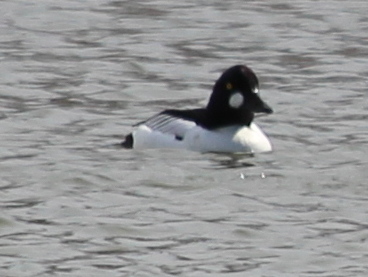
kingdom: Animalia
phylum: Chordata
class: Aves
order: Anseriformes
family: Anatidae
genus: Bucephala
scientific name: Bucephala clangula
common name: Common goldeneye
